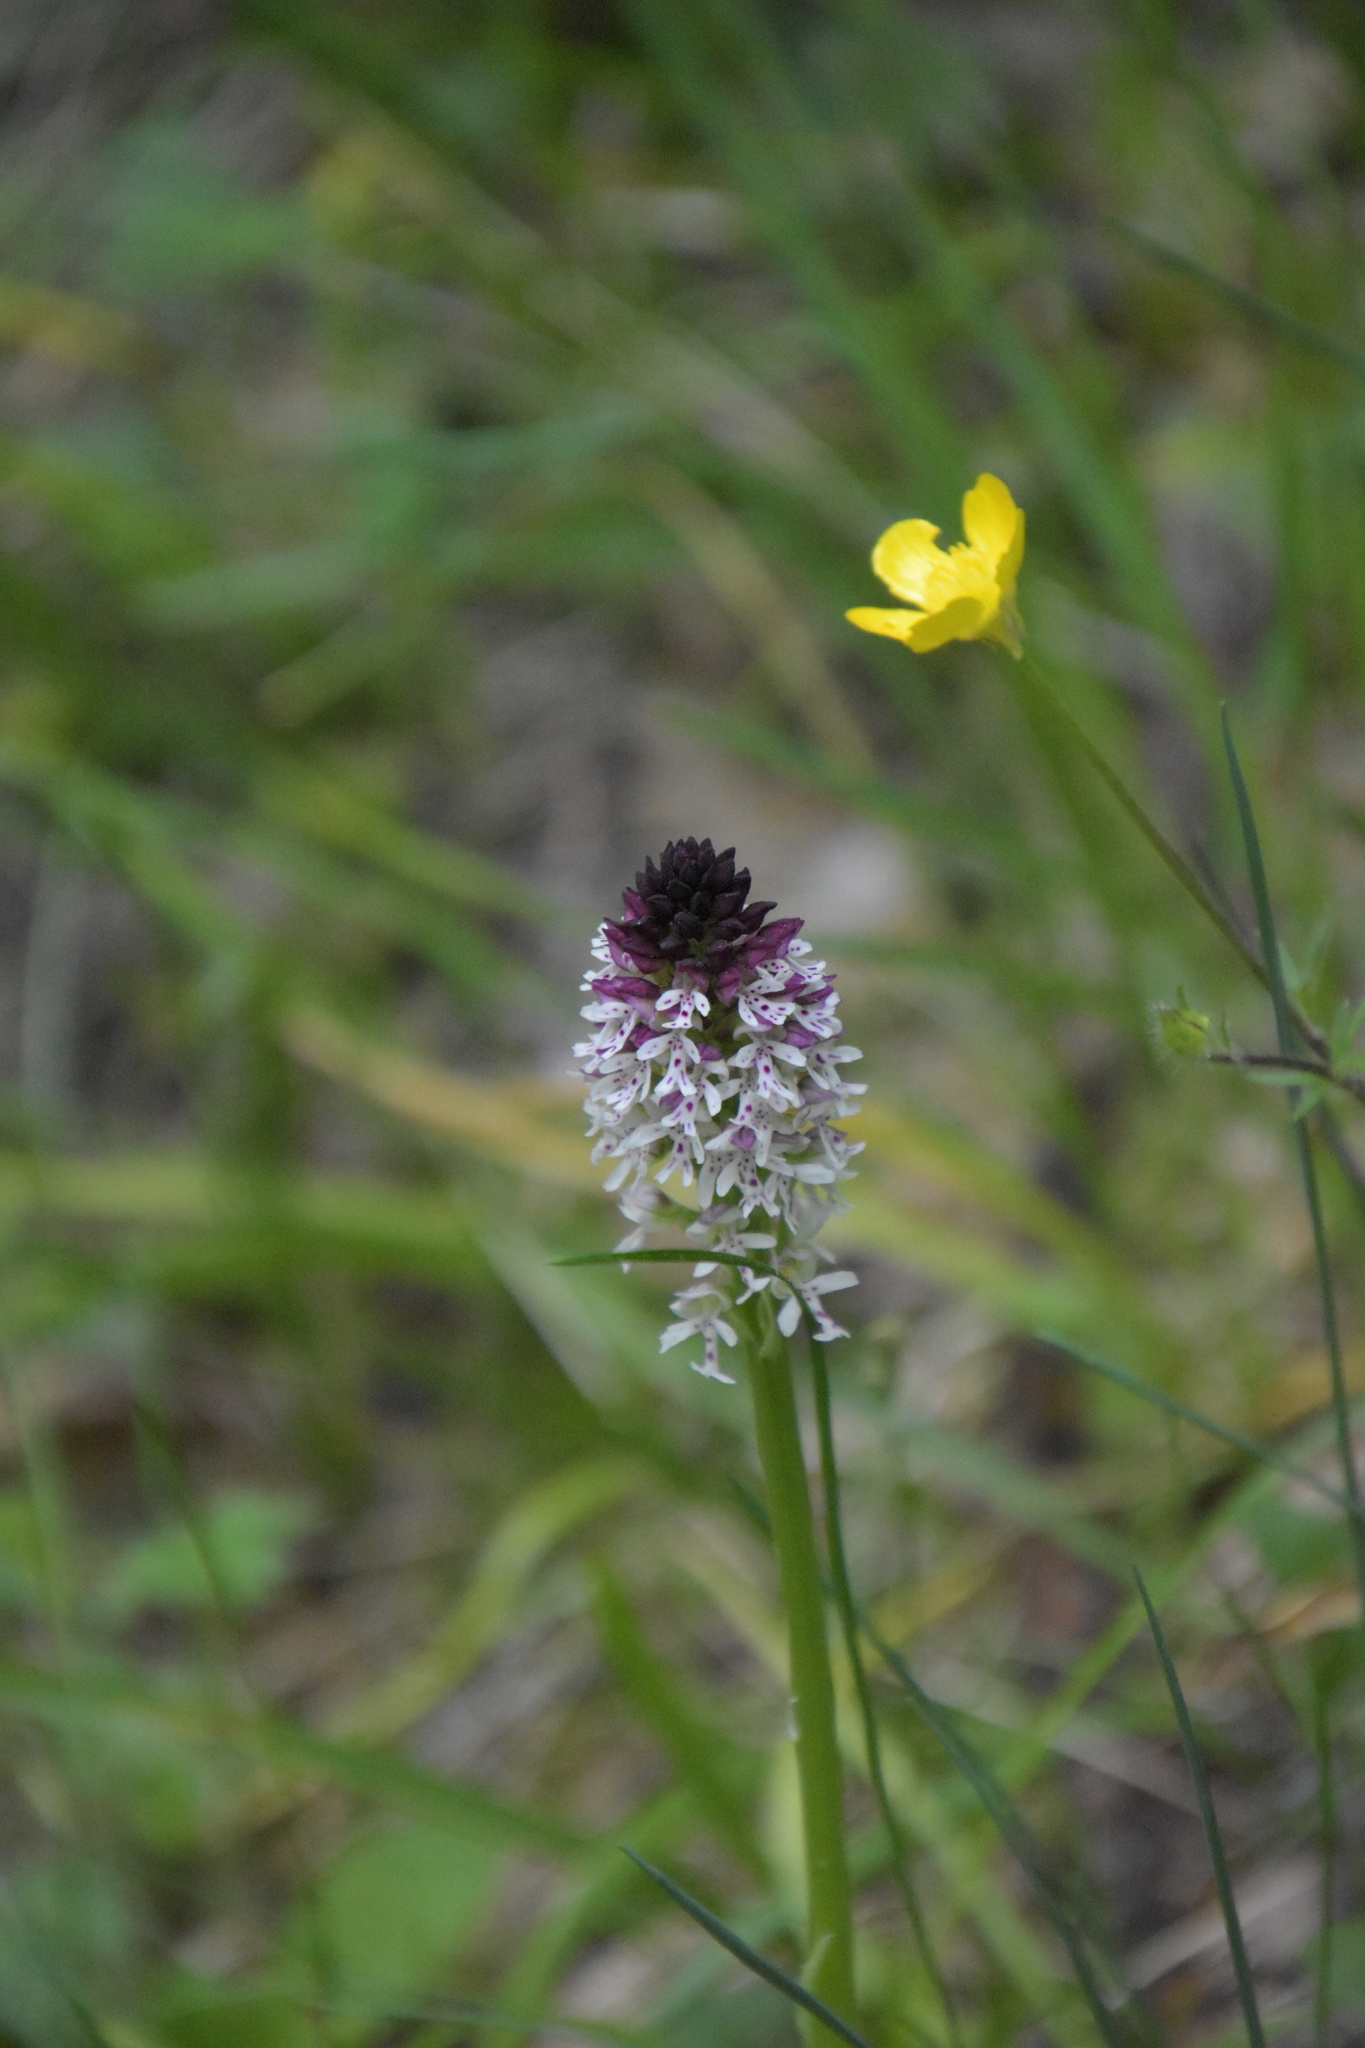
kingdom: Plantae
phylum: Tracheophyta
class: Liliopsida
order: Asparagales
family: Orchidaceae
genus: Neotinea
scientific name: Neotinea ustulata
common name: Burnt orchid
